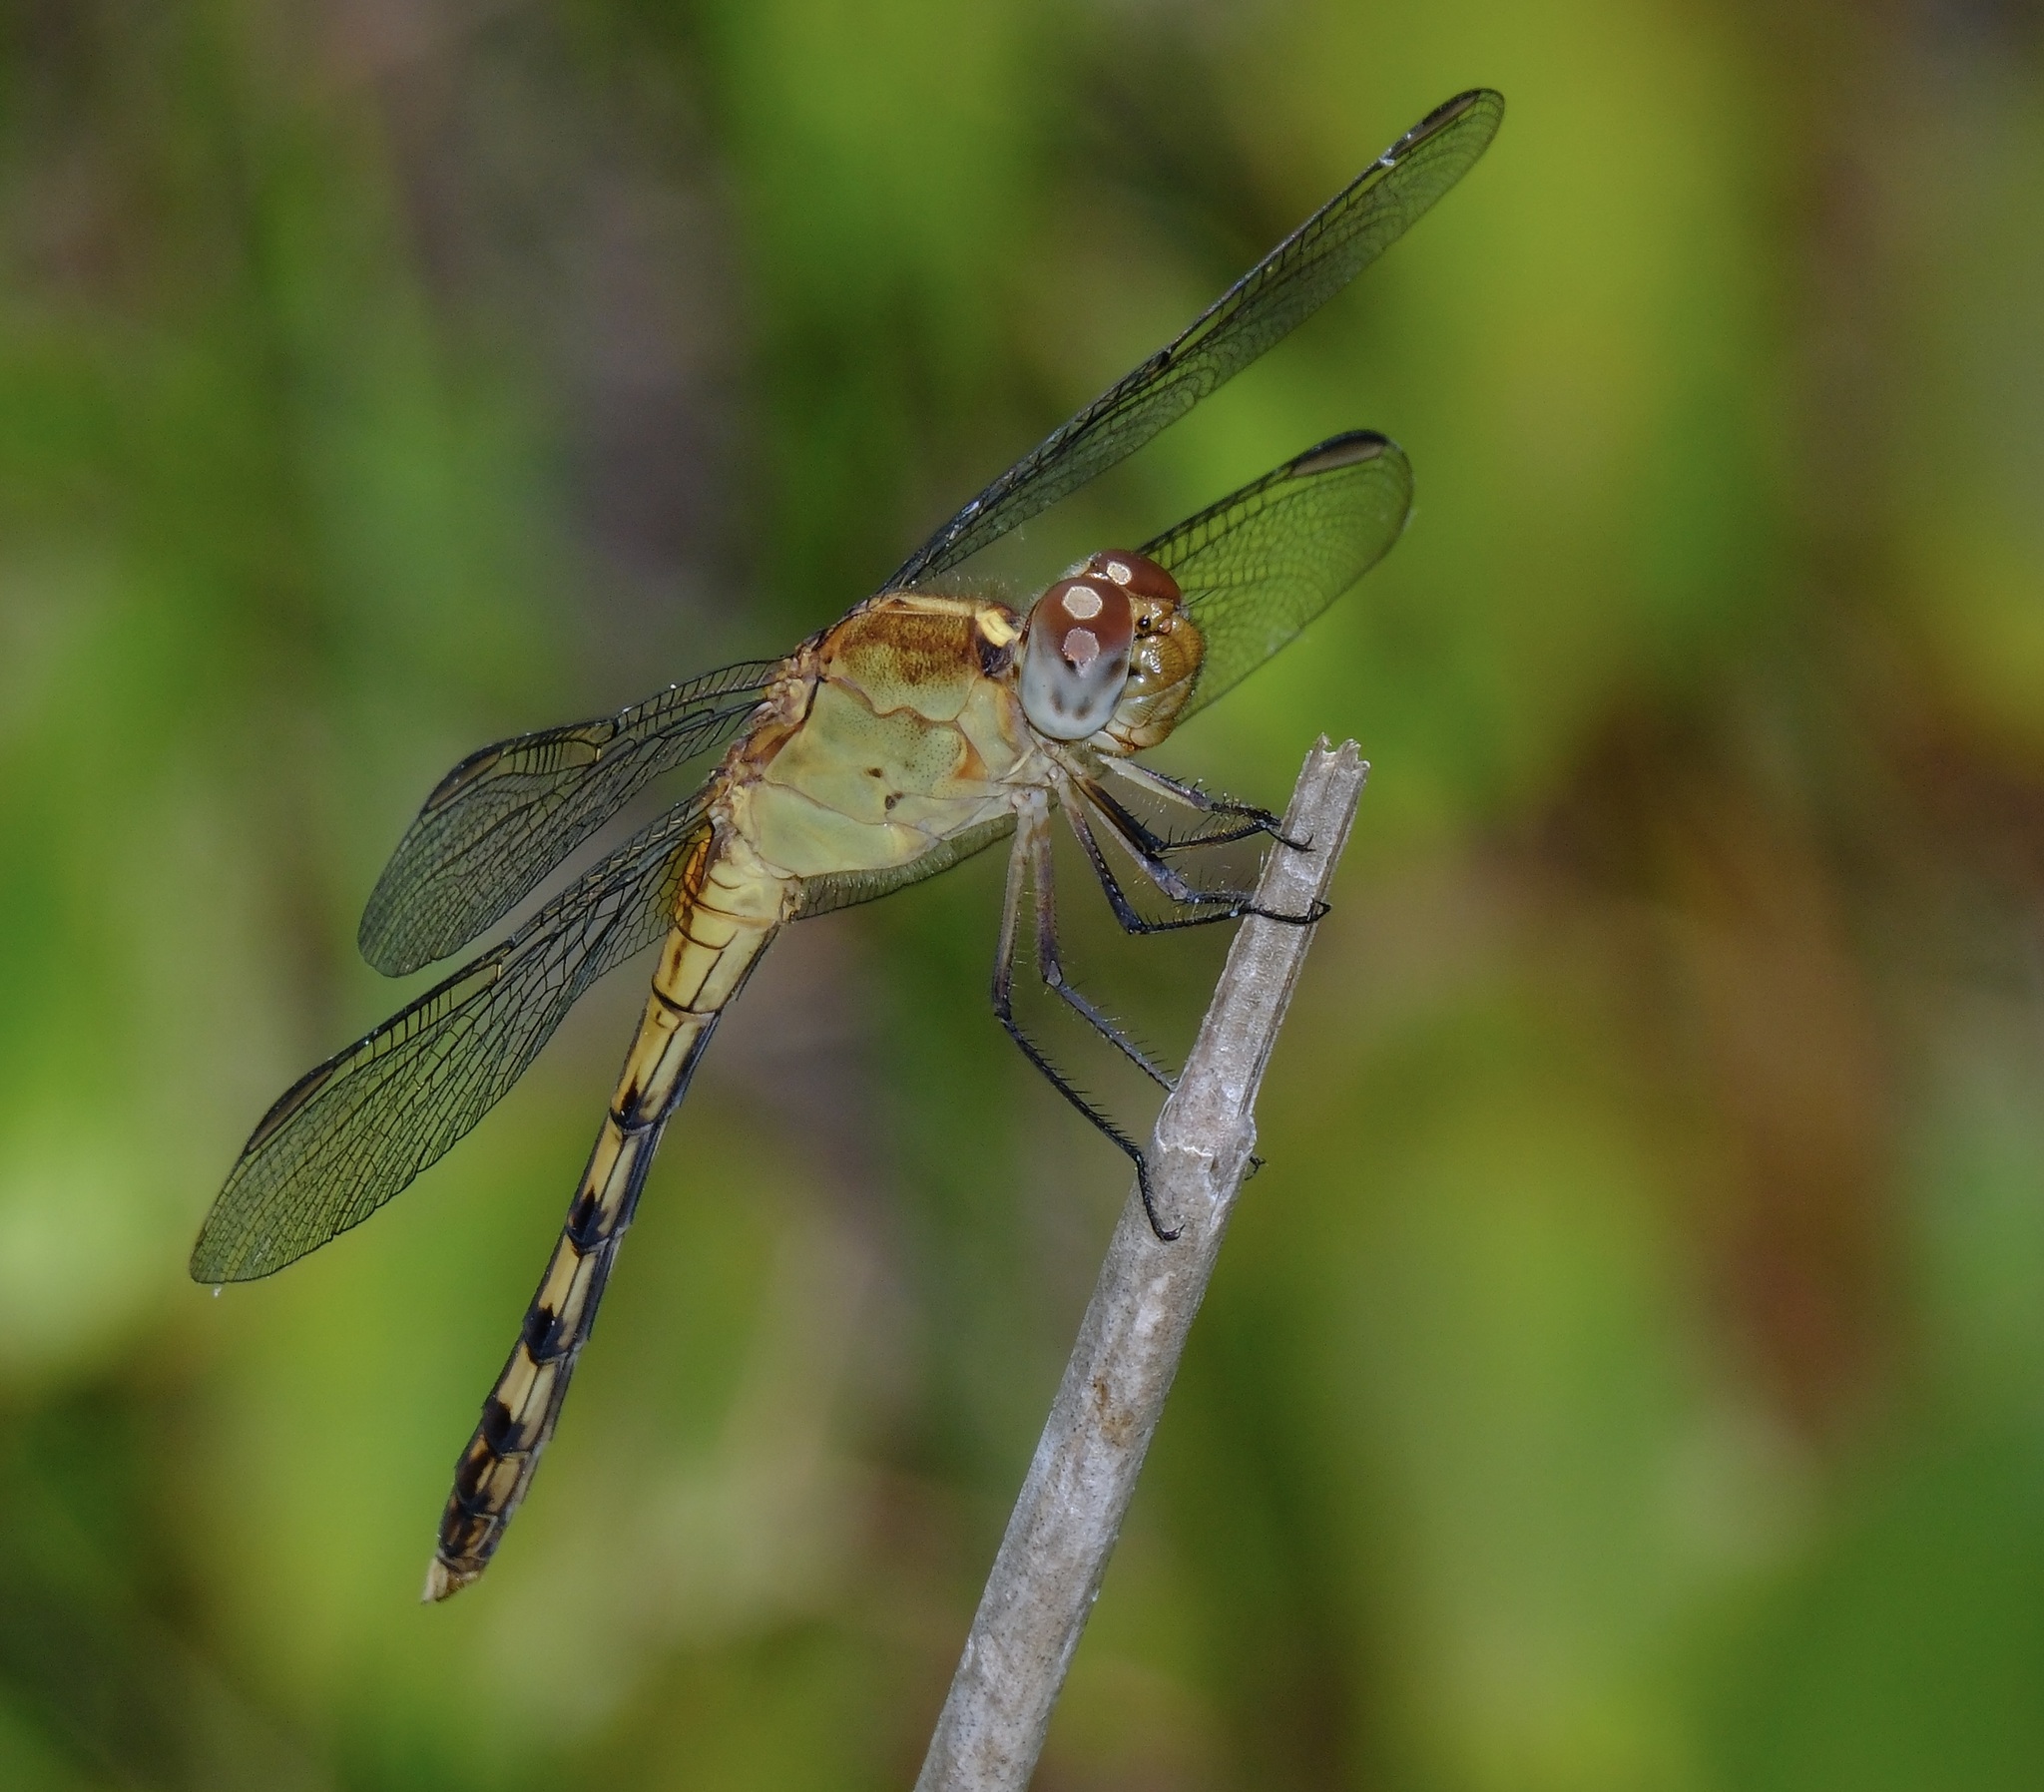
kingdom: Animalia
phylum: Arthropoda
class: Insecta
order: Odonata
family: Libellulidae
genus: Erythrodiplax
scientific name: Erythrodiplax umbrata
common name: Band-winged dragonlet
